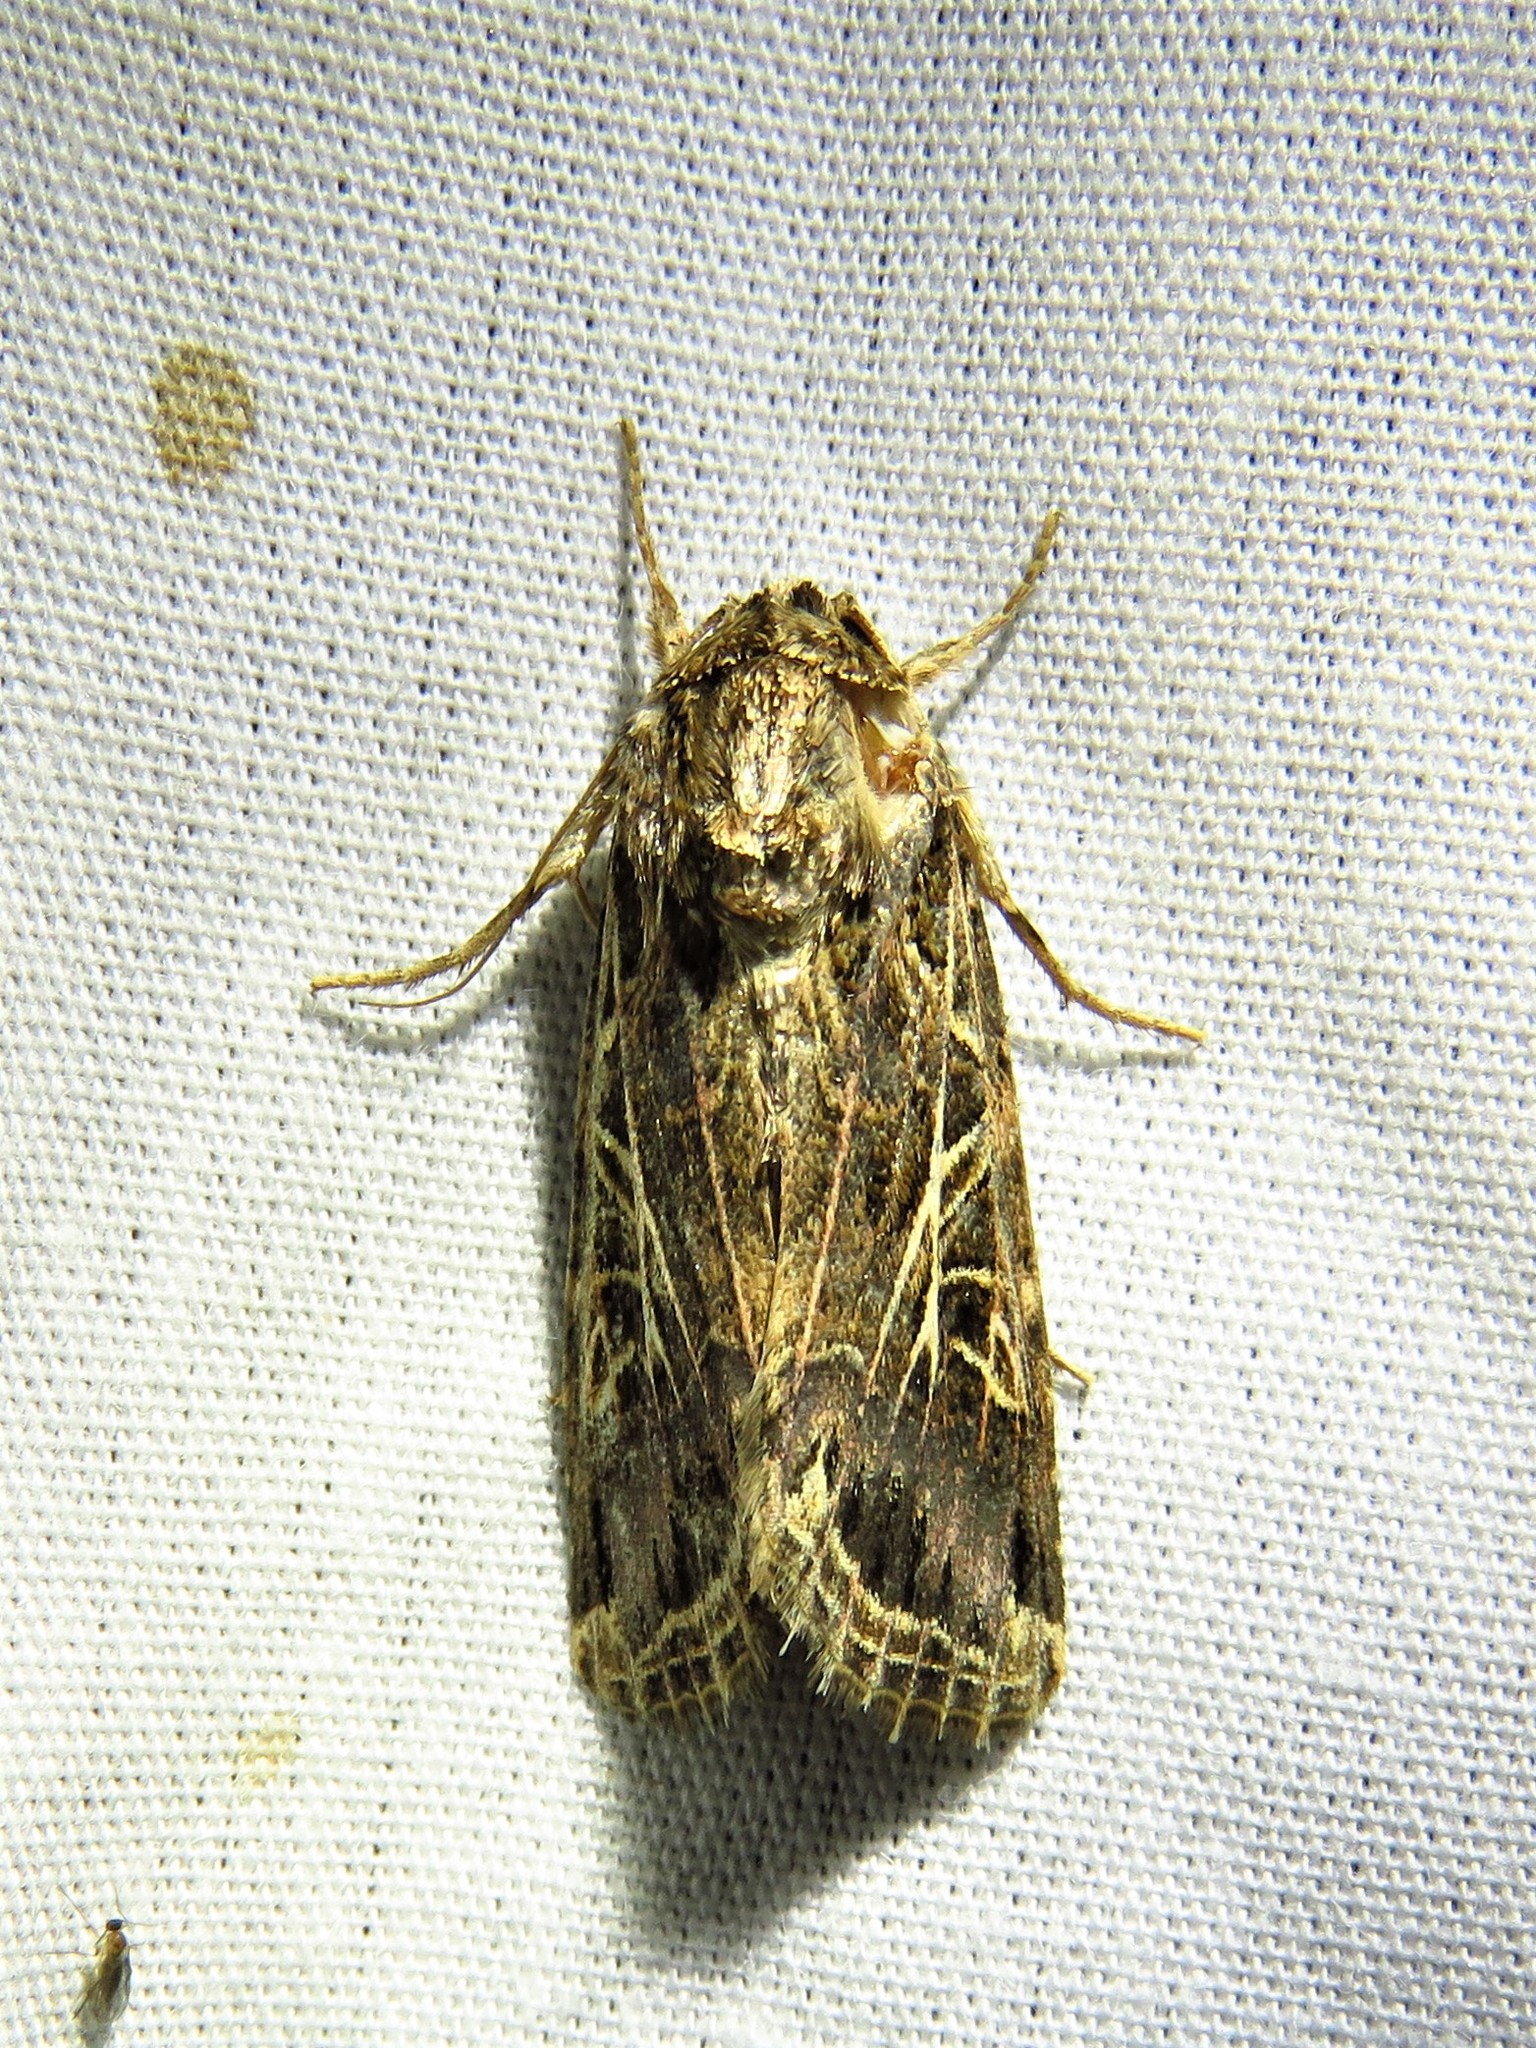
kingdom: Animalia
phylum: Arthropoda
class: Insecta
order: Lepidoptera
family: Noctuidae
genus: Spodoptera
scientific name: Spodoptera littoralis
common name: Egyptian cotton leafworm
